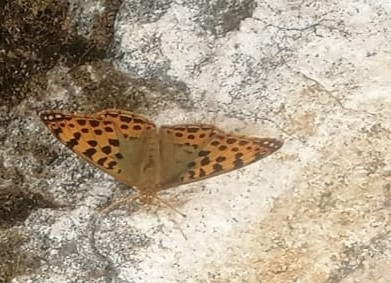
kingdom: Animalia
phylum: Arthropoda
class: Insecta
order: Lepidoptera
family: Nymphalidae
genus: Issoria
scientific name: Issoria lathonia
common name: Queen of spain fritillary
